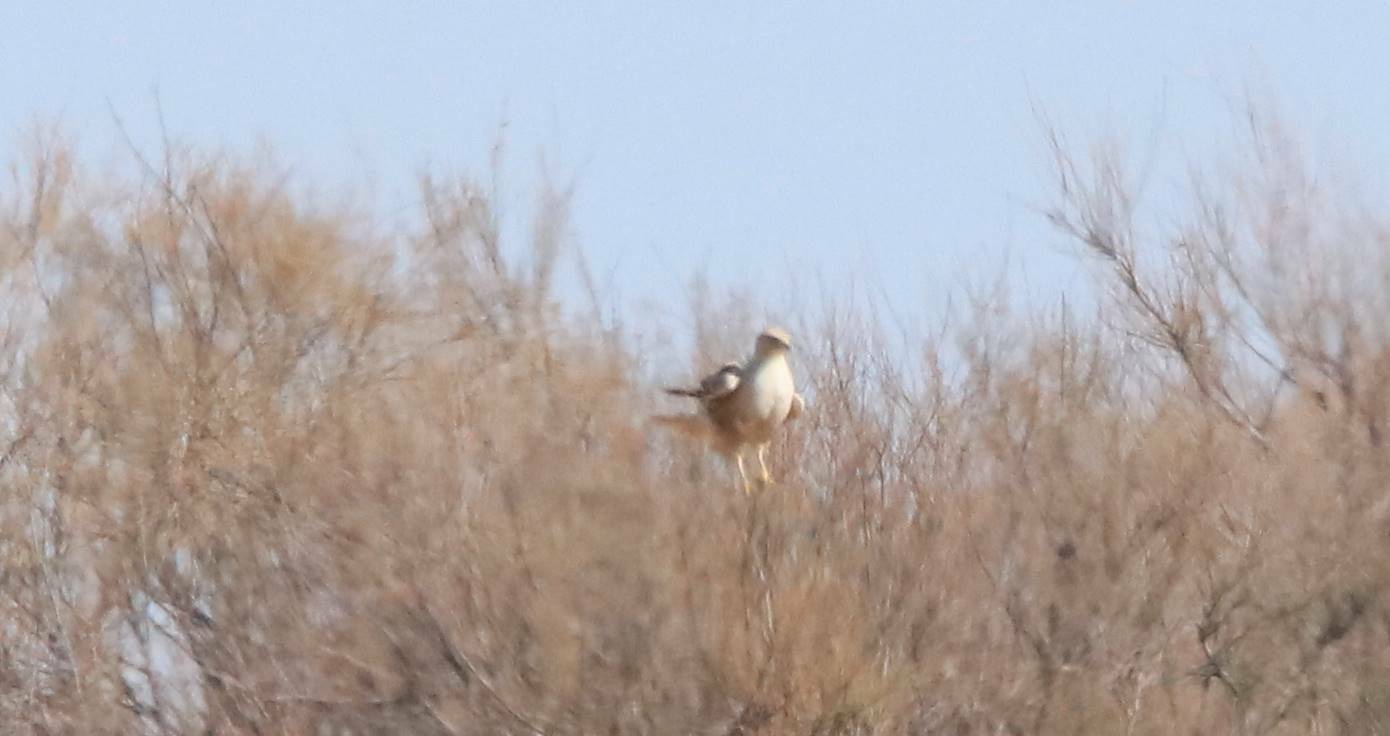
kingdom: Animalia
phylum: Chordata
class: Aves
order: Accipitriformes
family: Accipitridae
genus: Buteo
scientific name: Buteo rufinus
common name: Long-legged buzzard
